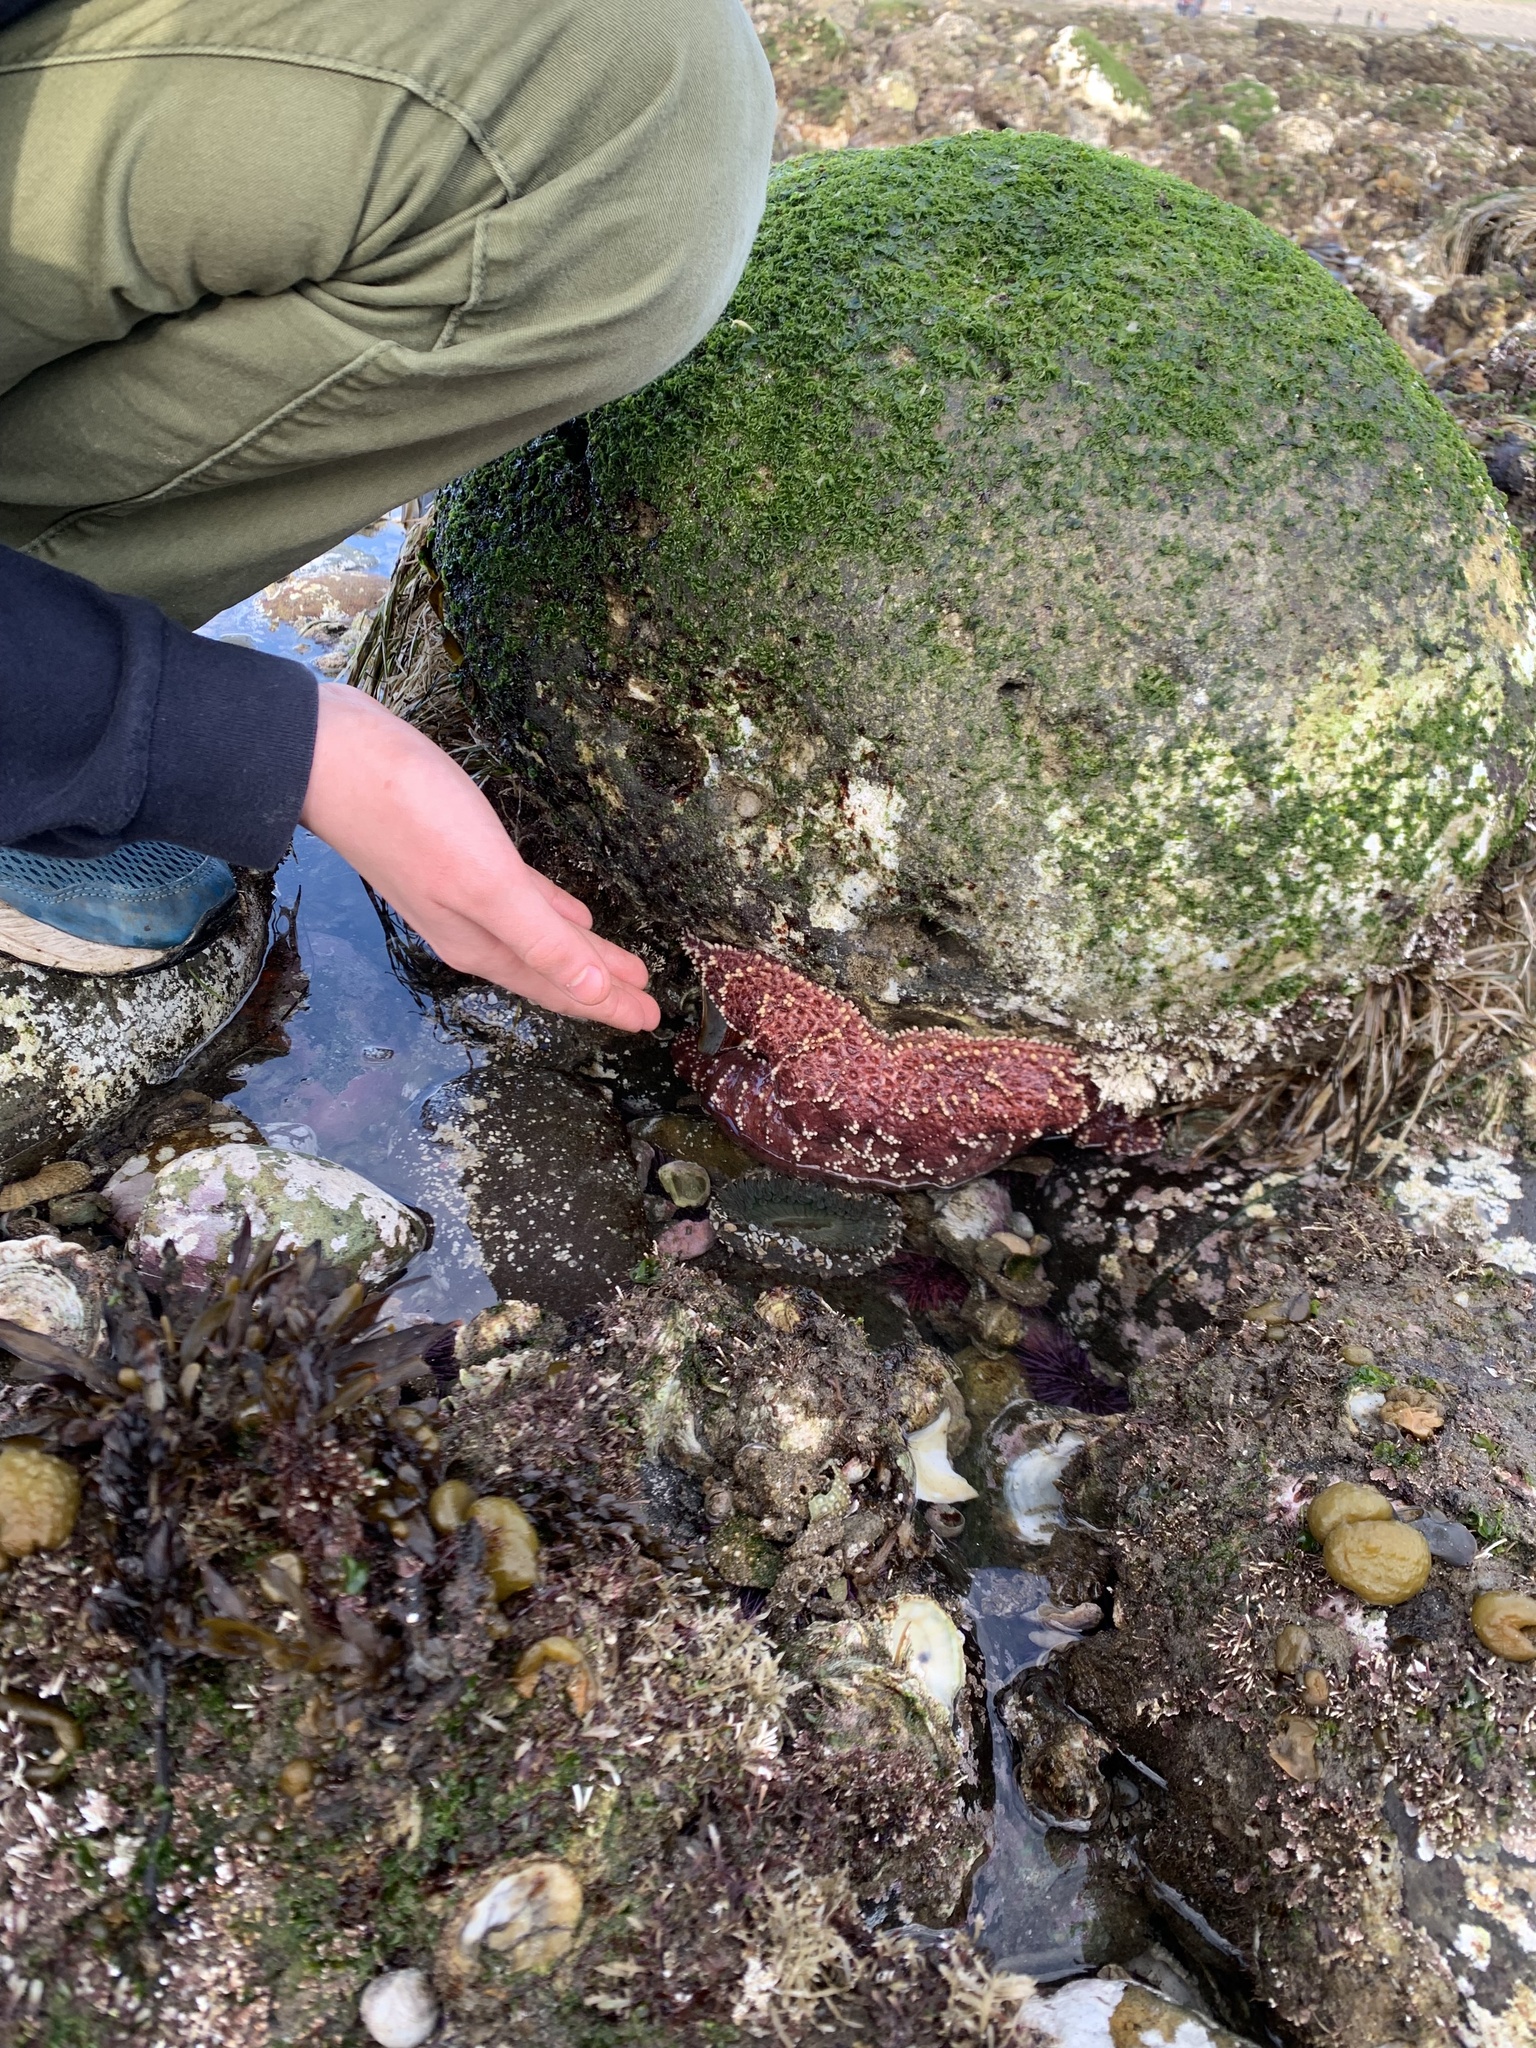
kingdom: Animalia
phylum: Echinodermata
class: Asteroidea
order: Forcipulatida
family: Asteriidae
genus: Pisaster
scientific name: Pisaster ochraceus
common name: Ochre stars
